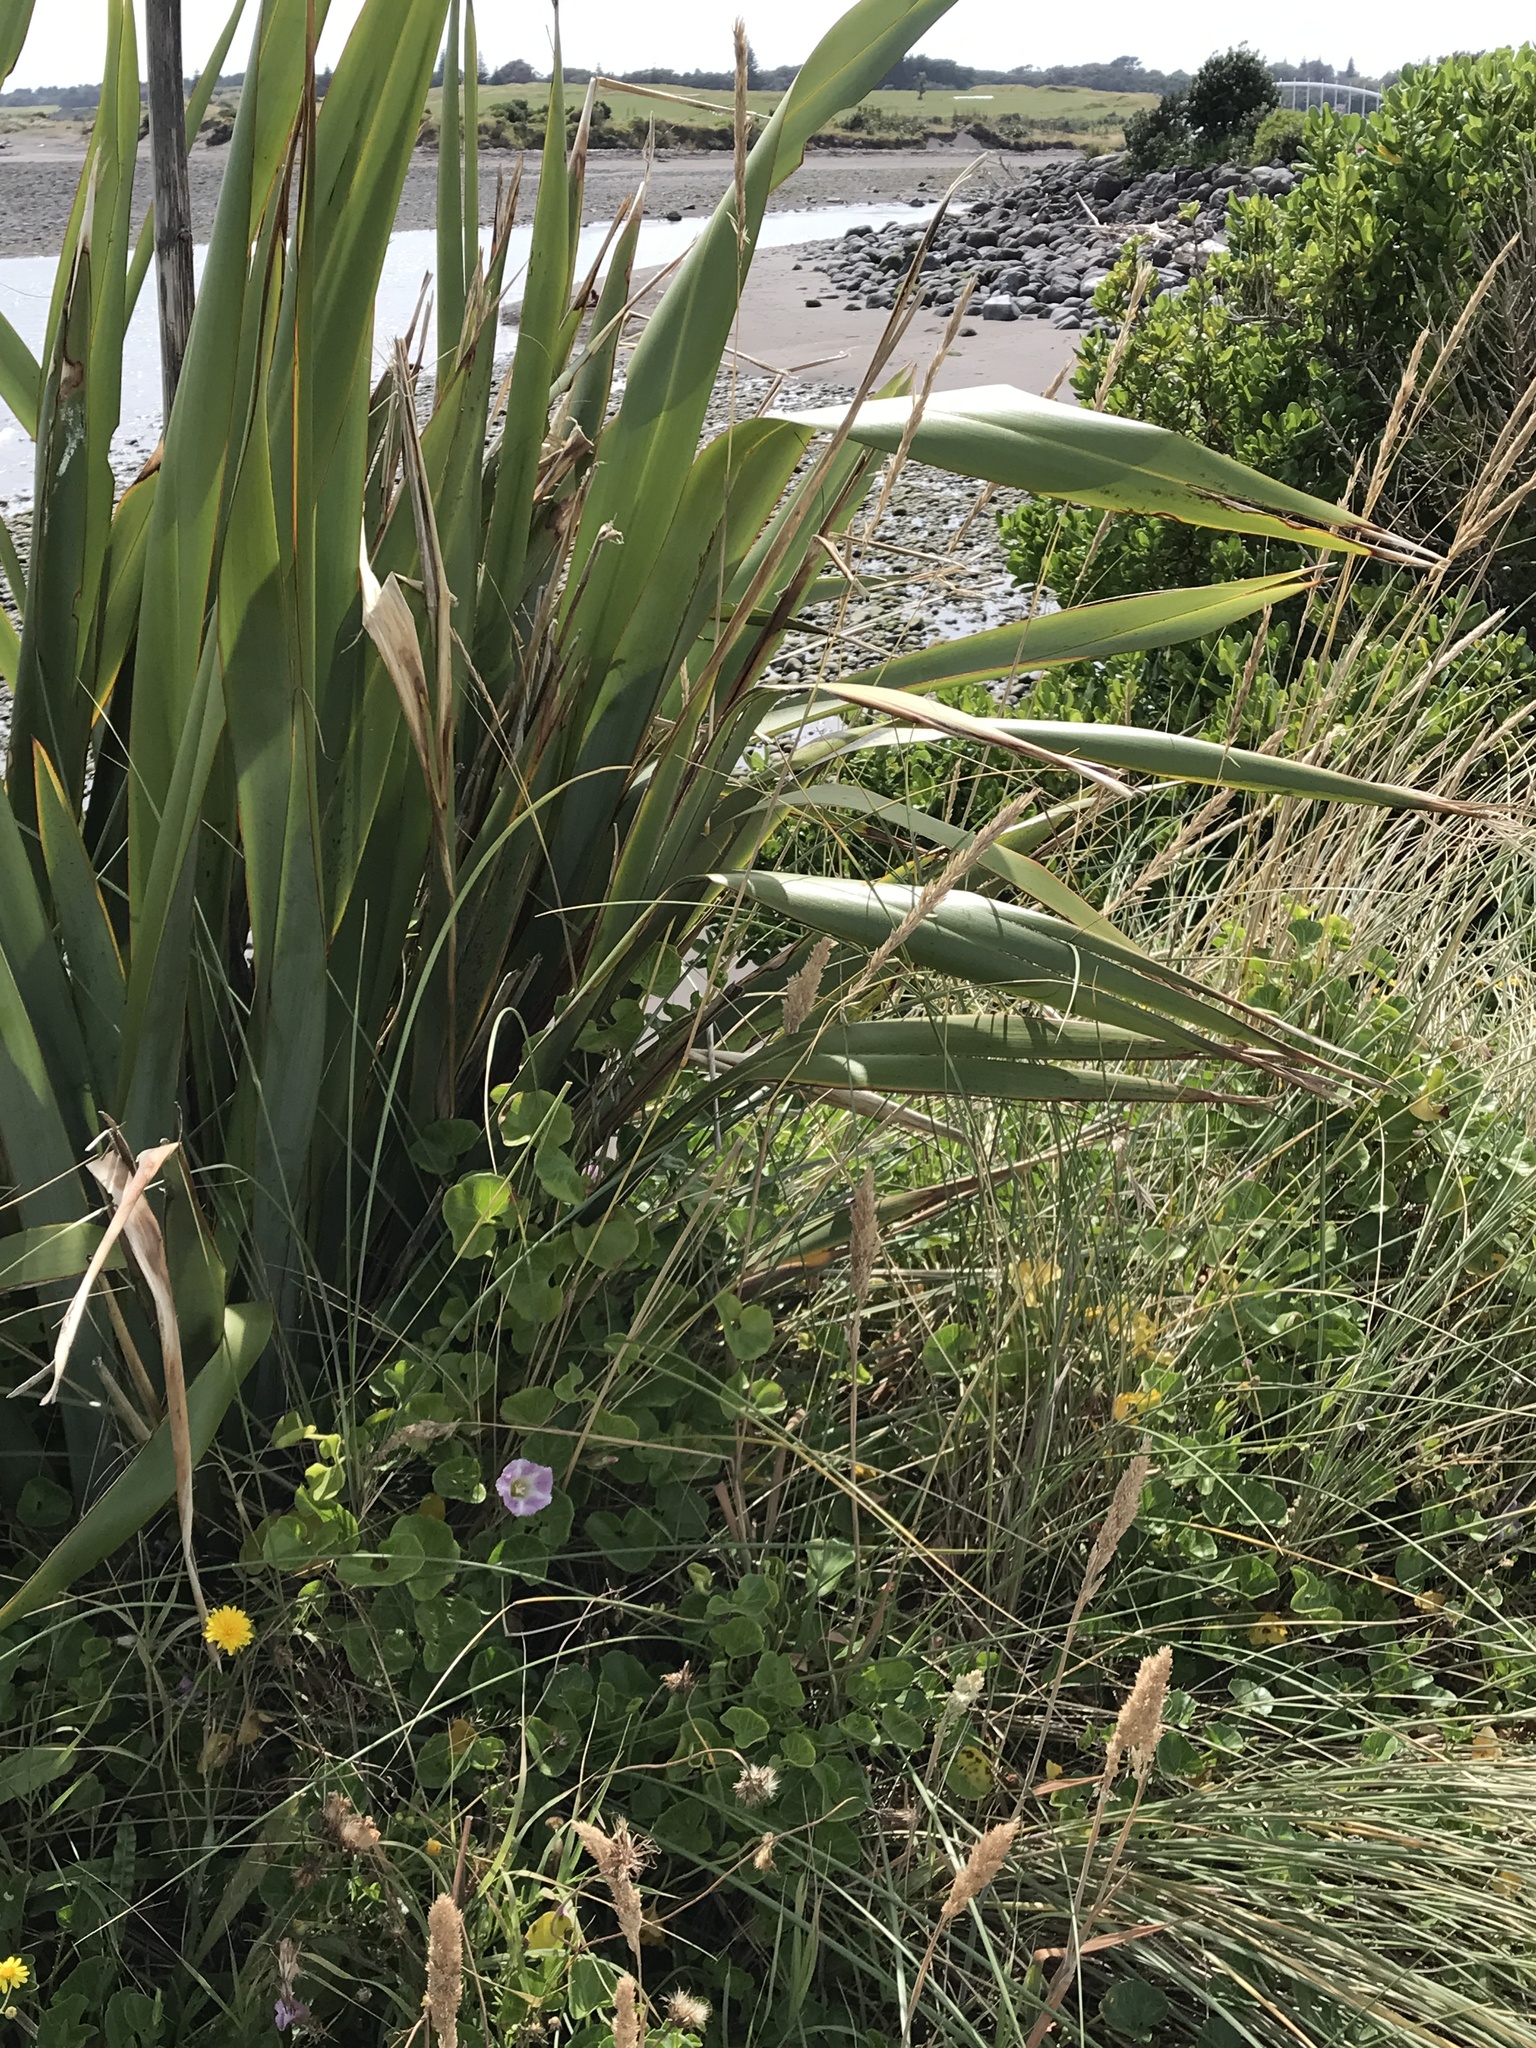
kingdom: Plantae
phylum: Tracheophyta
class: Magnoliopsida
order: Solanales
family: Convolvulaceae
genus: Calystegia
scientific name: Calystegia soldanella
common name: Sea bindweed
